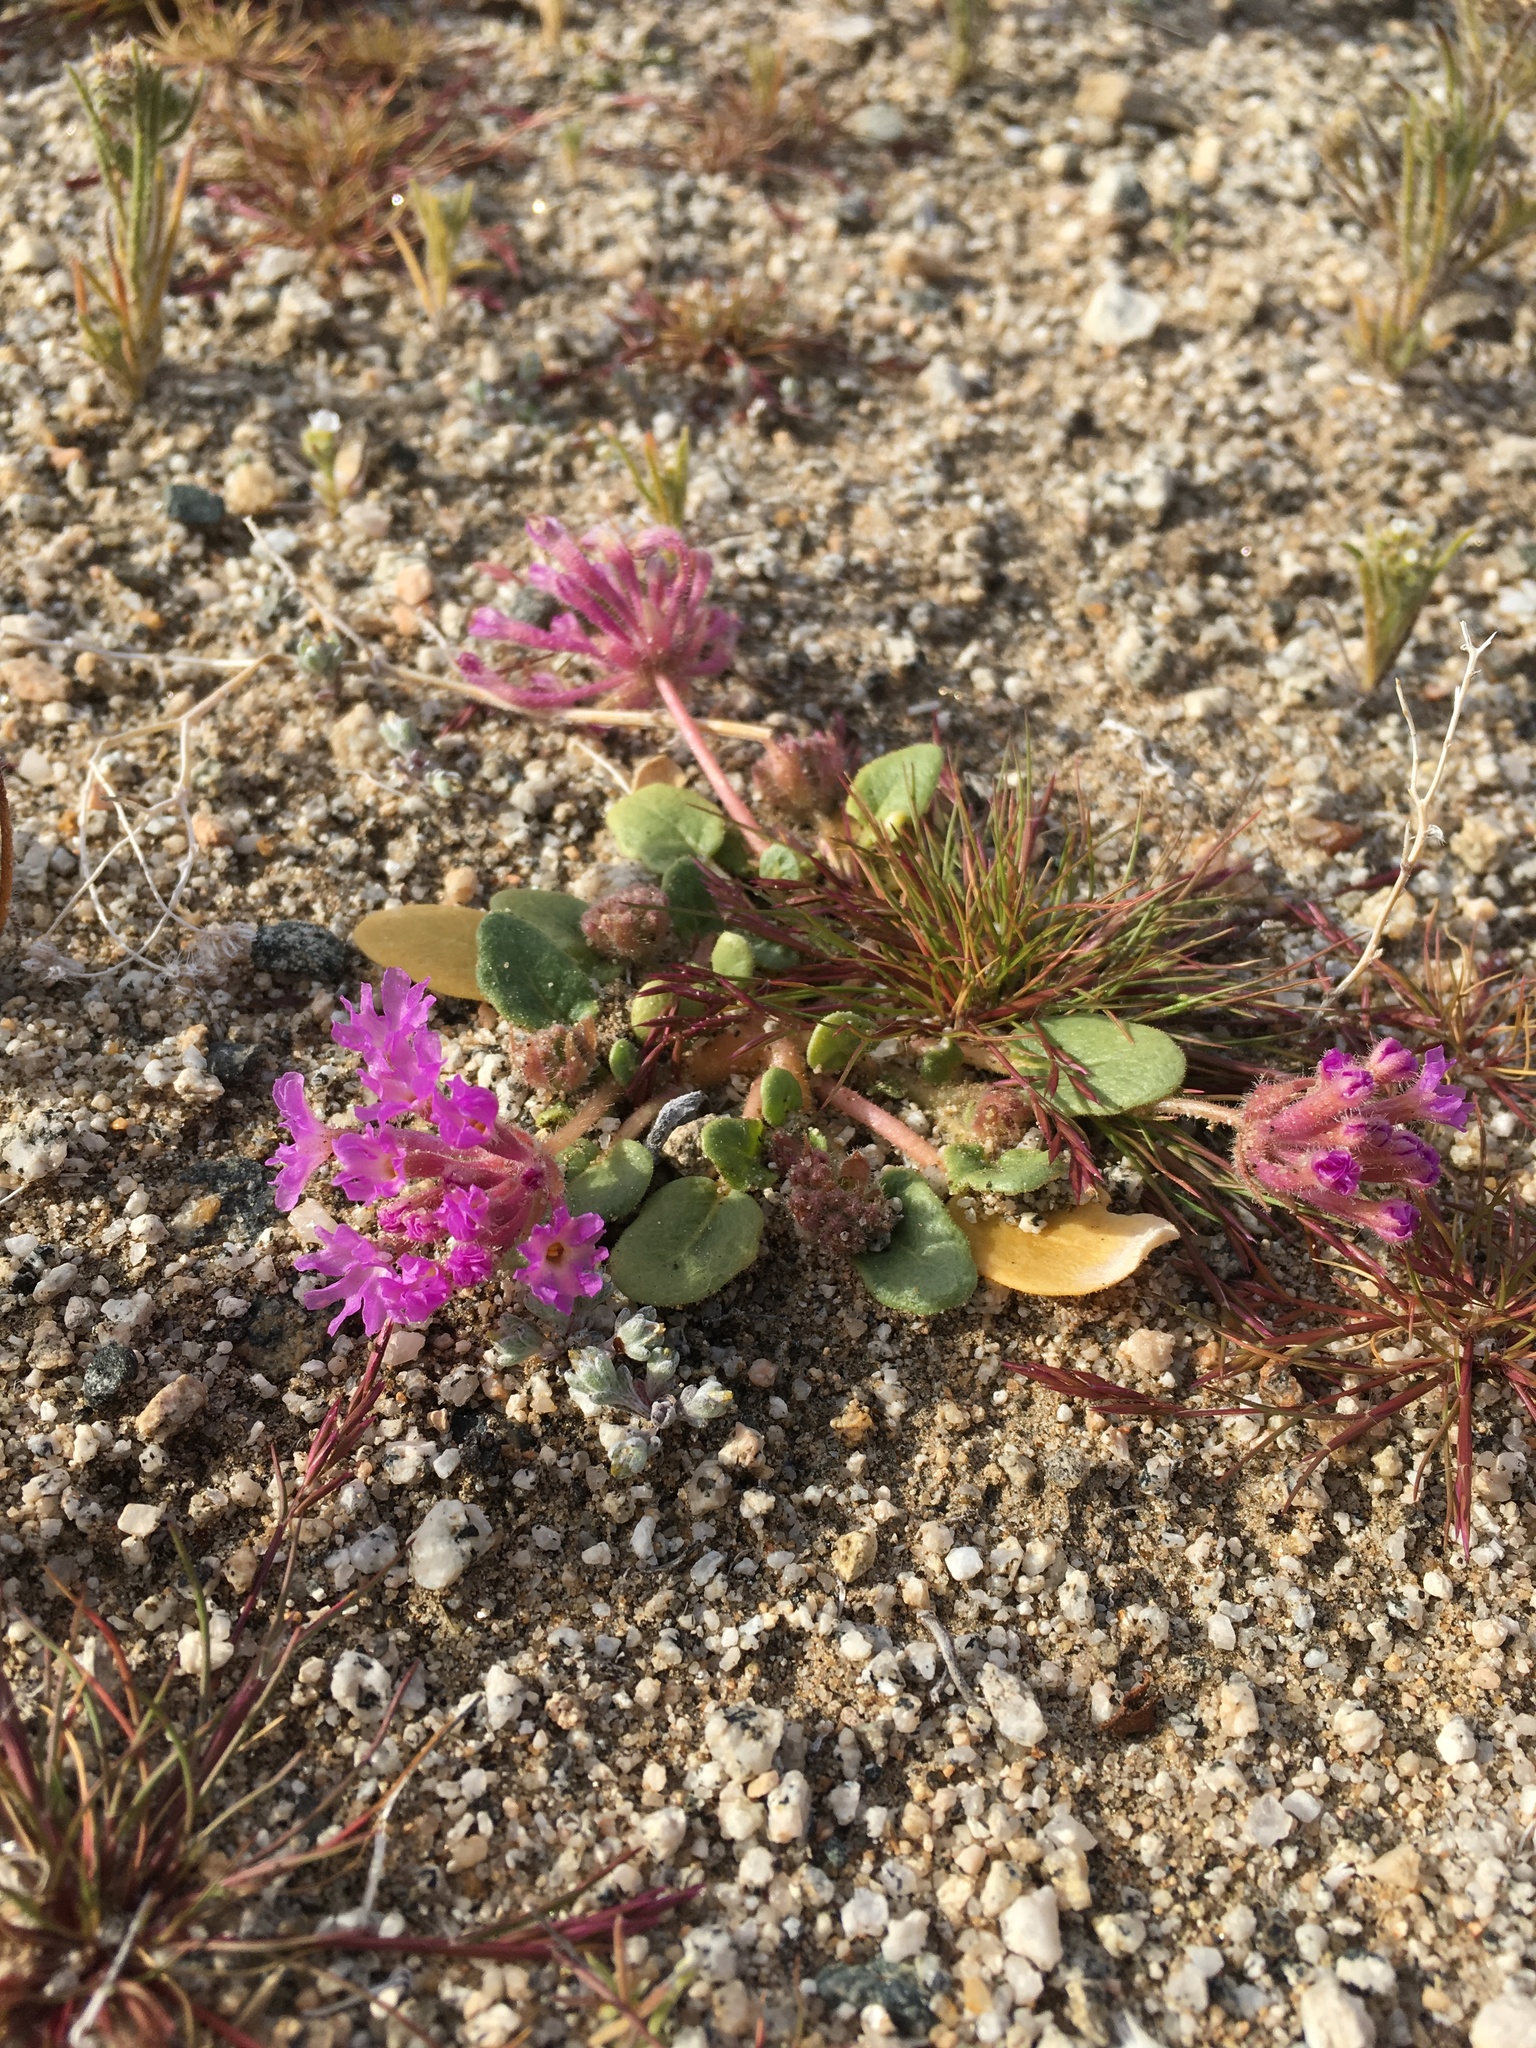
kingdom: Plantae
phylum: Tracheophyta
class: Magnoliopsida
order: Caryophyllales
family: Nyctaginaceae
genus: Abronia
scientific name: Abronia villosa
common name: Desert sand-verbena
